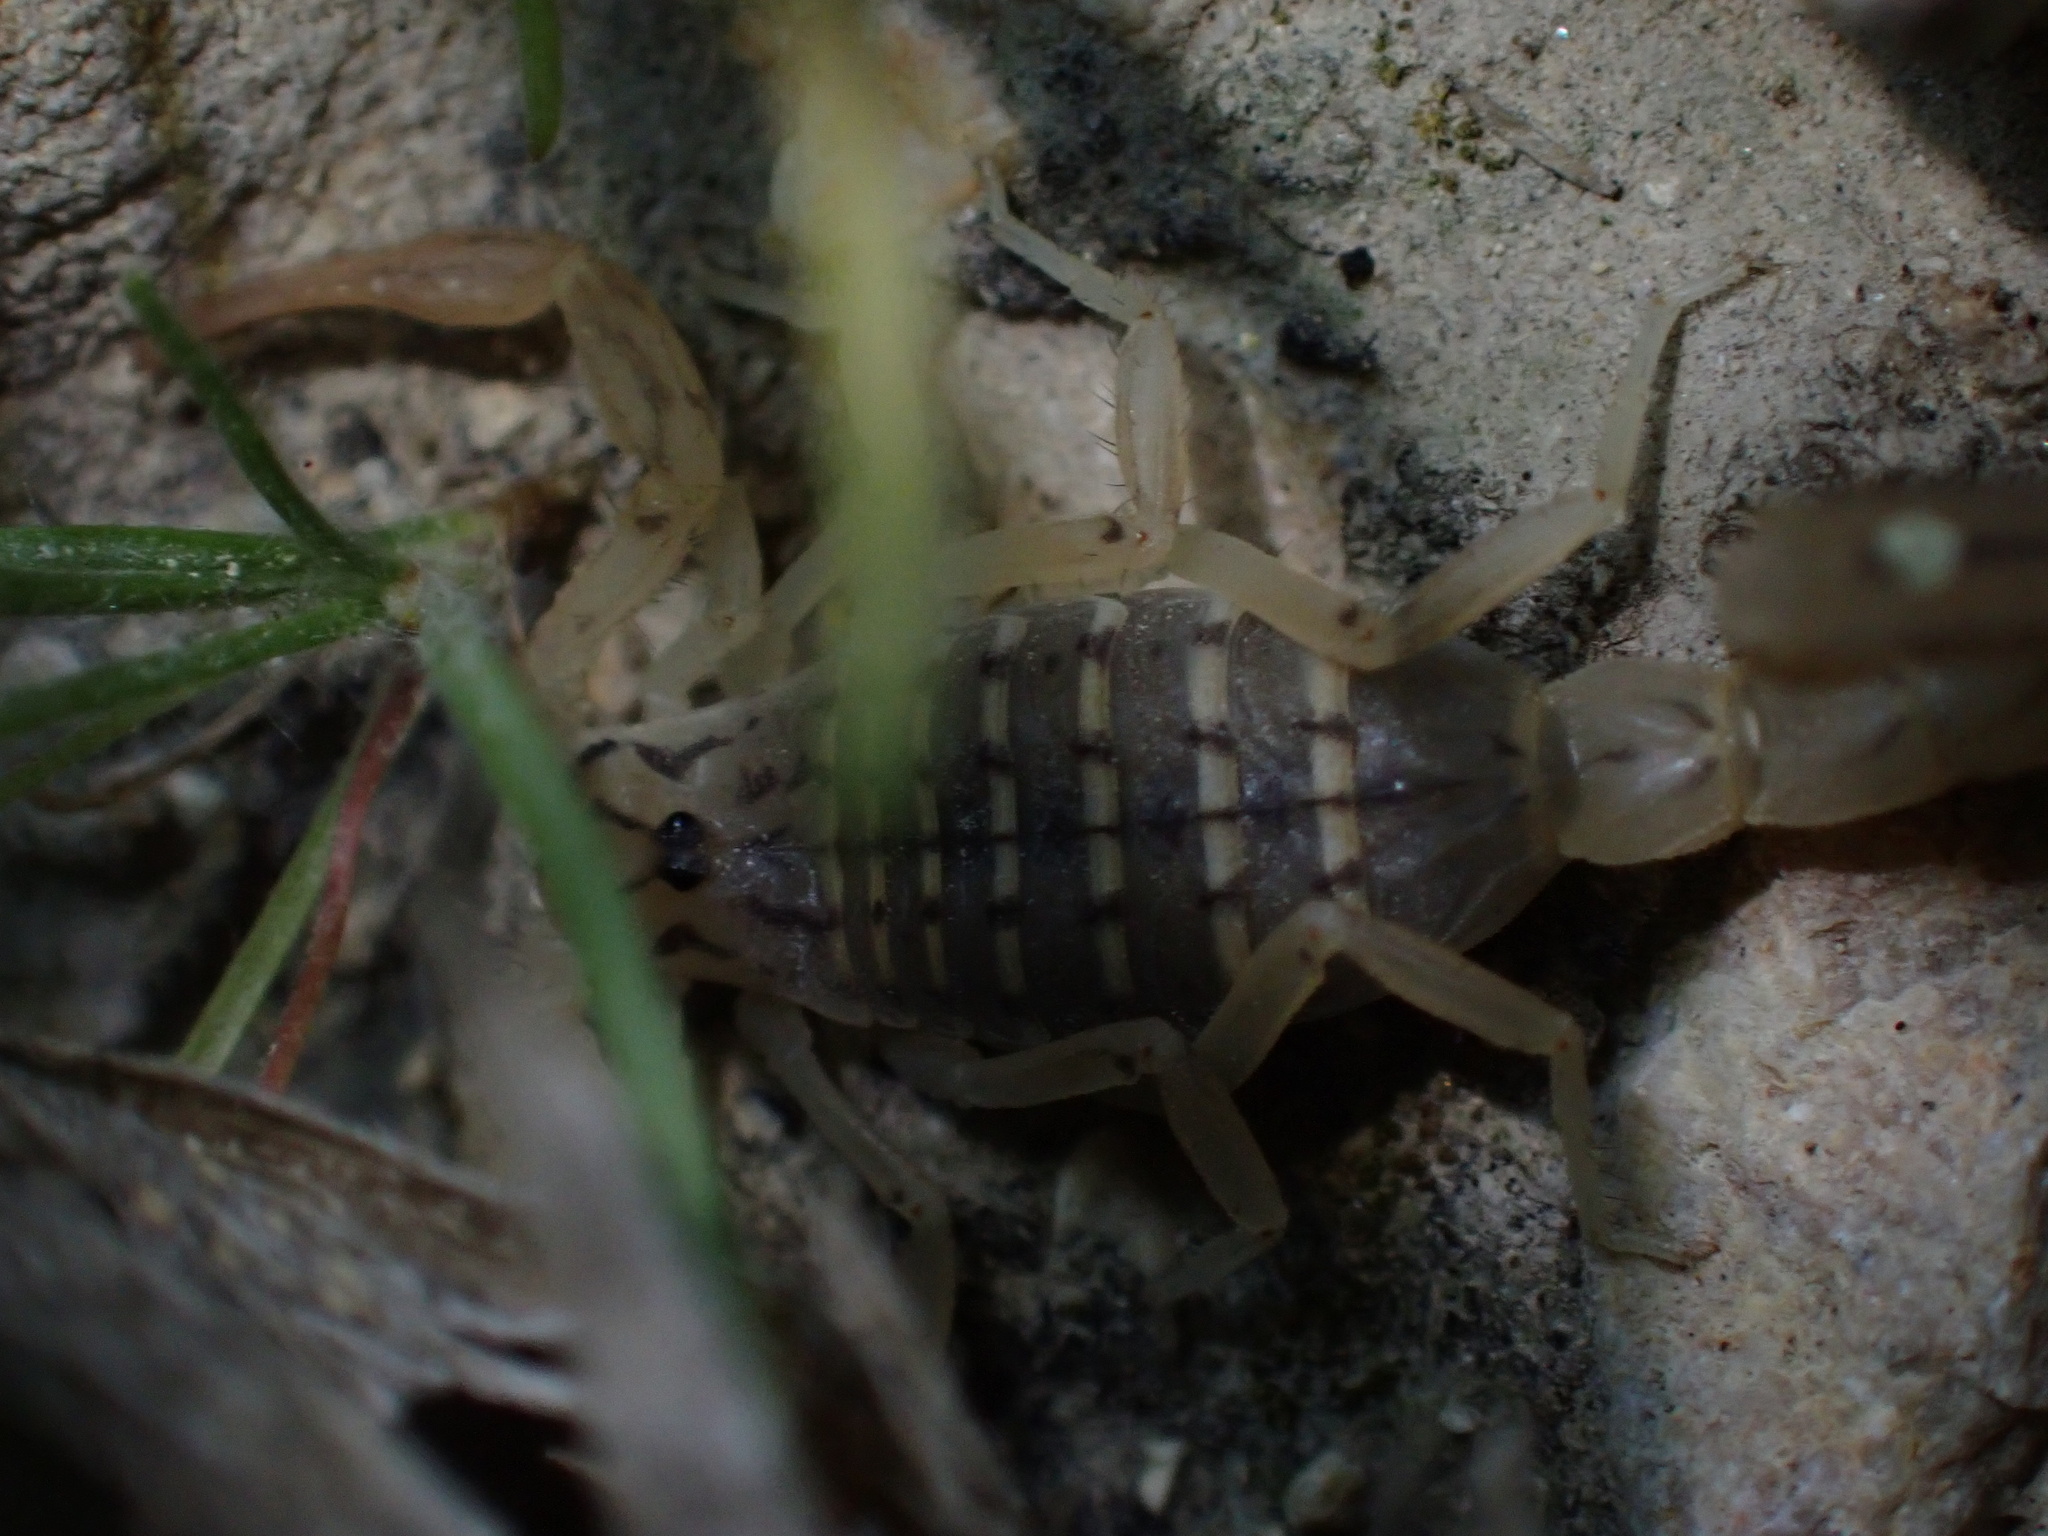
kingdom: Animalia
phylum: Arthropoda
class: Arachnida
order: Scorpiones
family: Buthidae
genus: Mesobuthus
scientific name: Mesobuthus mirshamsii
